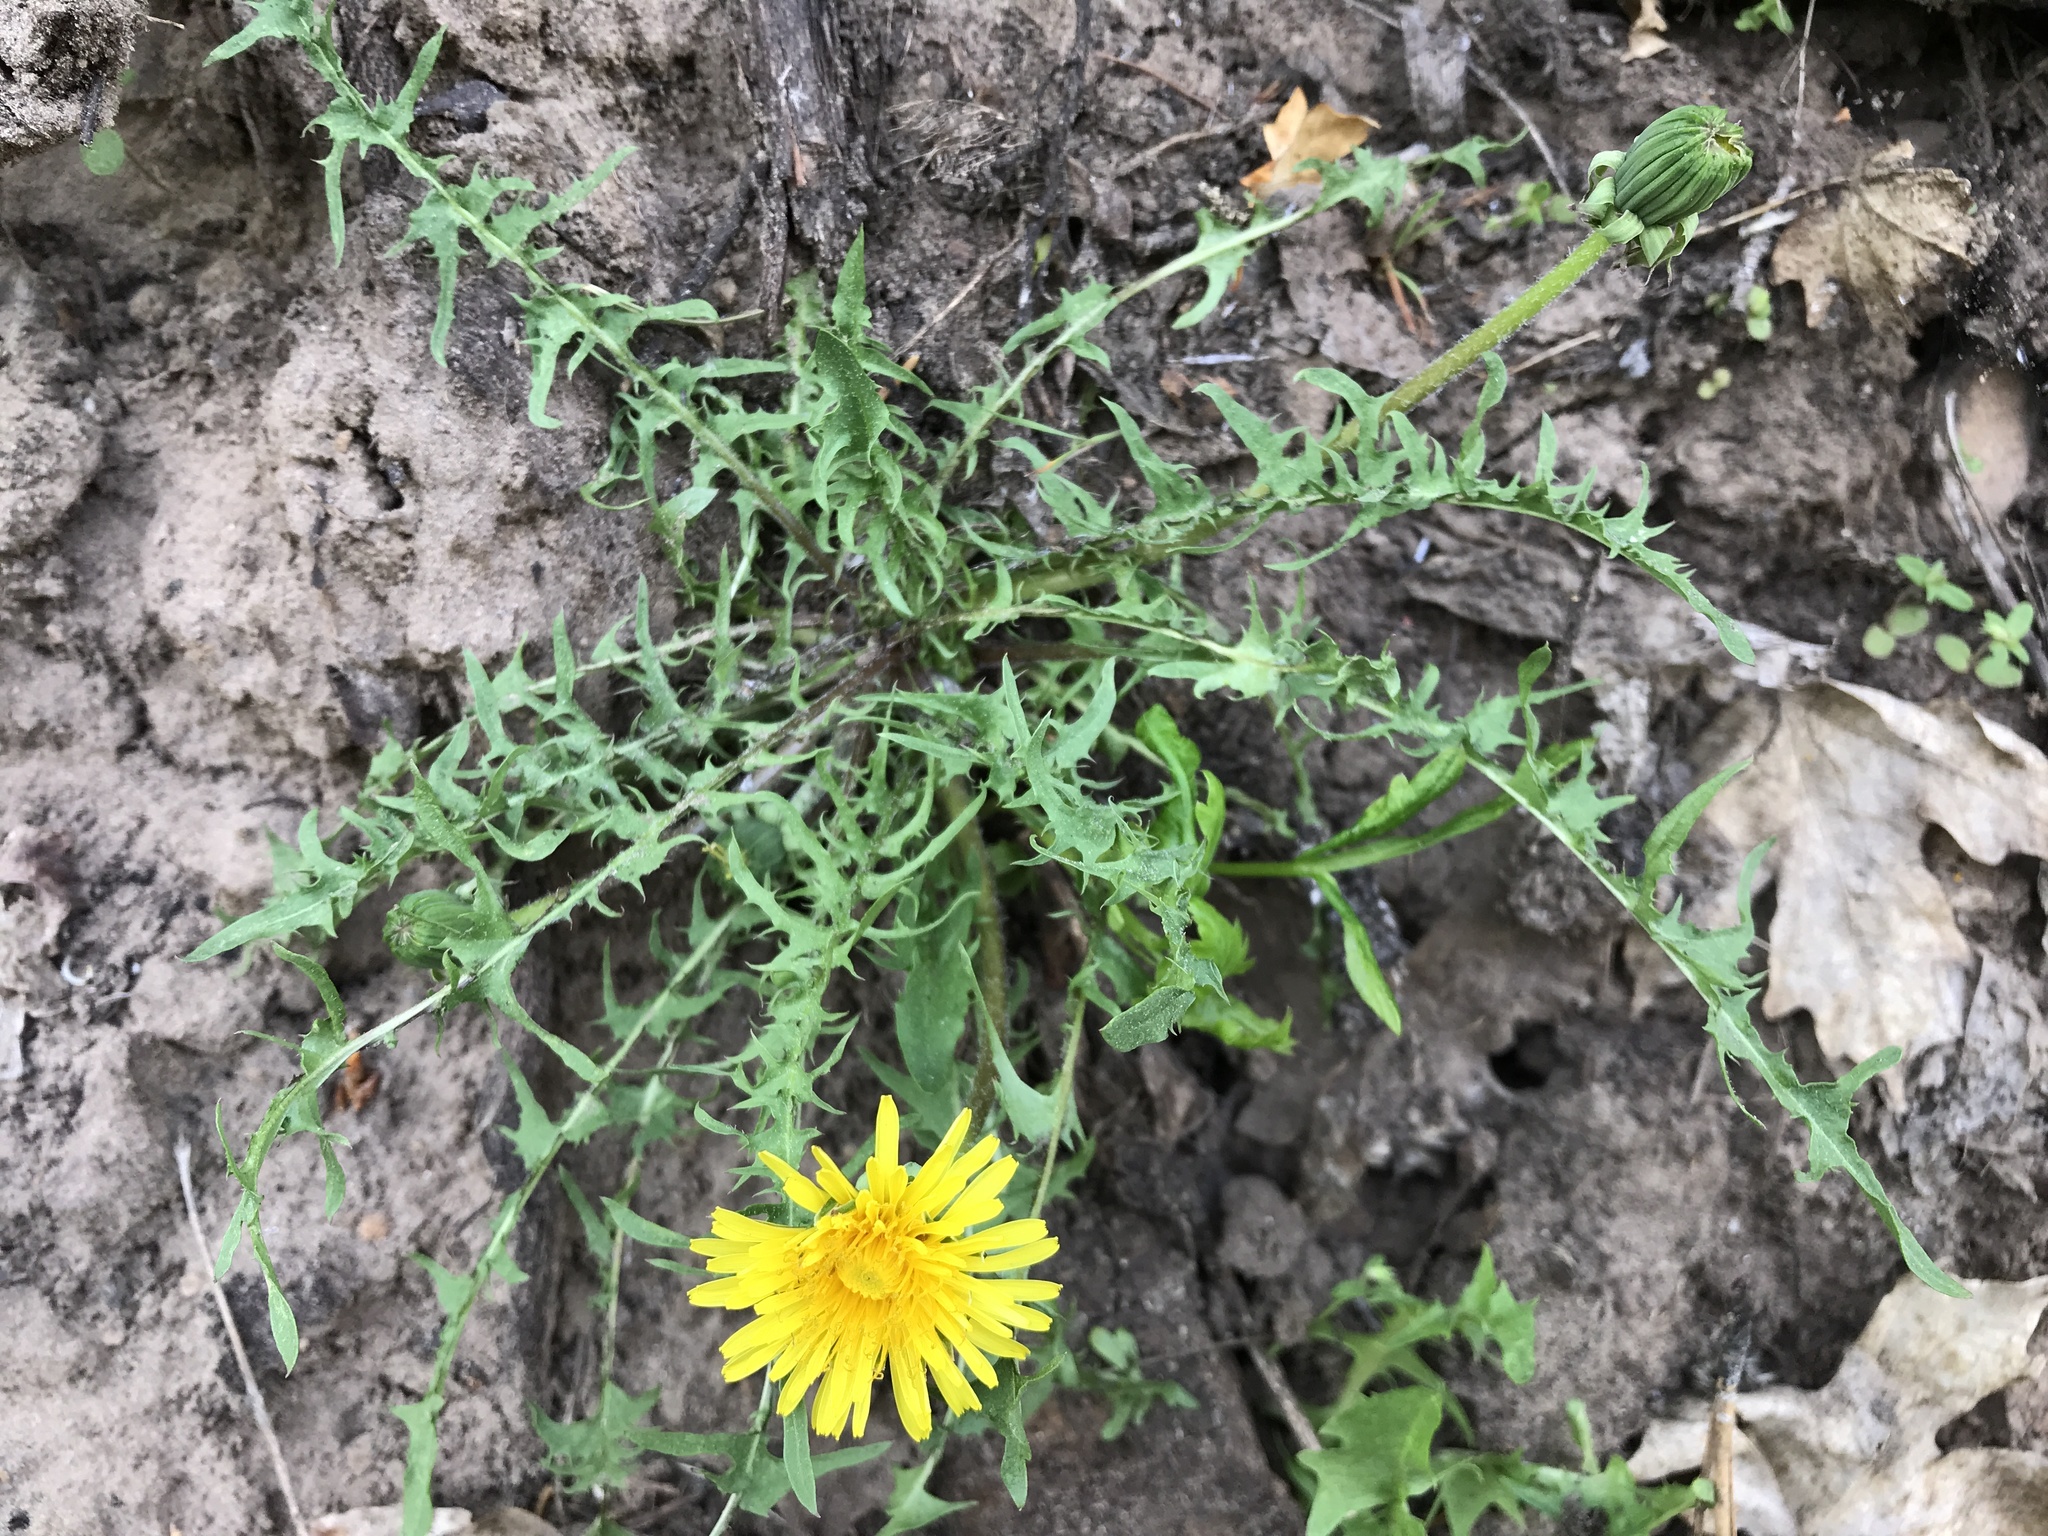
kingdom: Plantae
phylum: Tracheophyta
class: Magnoliopsida
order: Asterales
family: Asteraceae
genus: Taraxacum
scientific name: Taraxacum officinale
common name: Common dandelion
